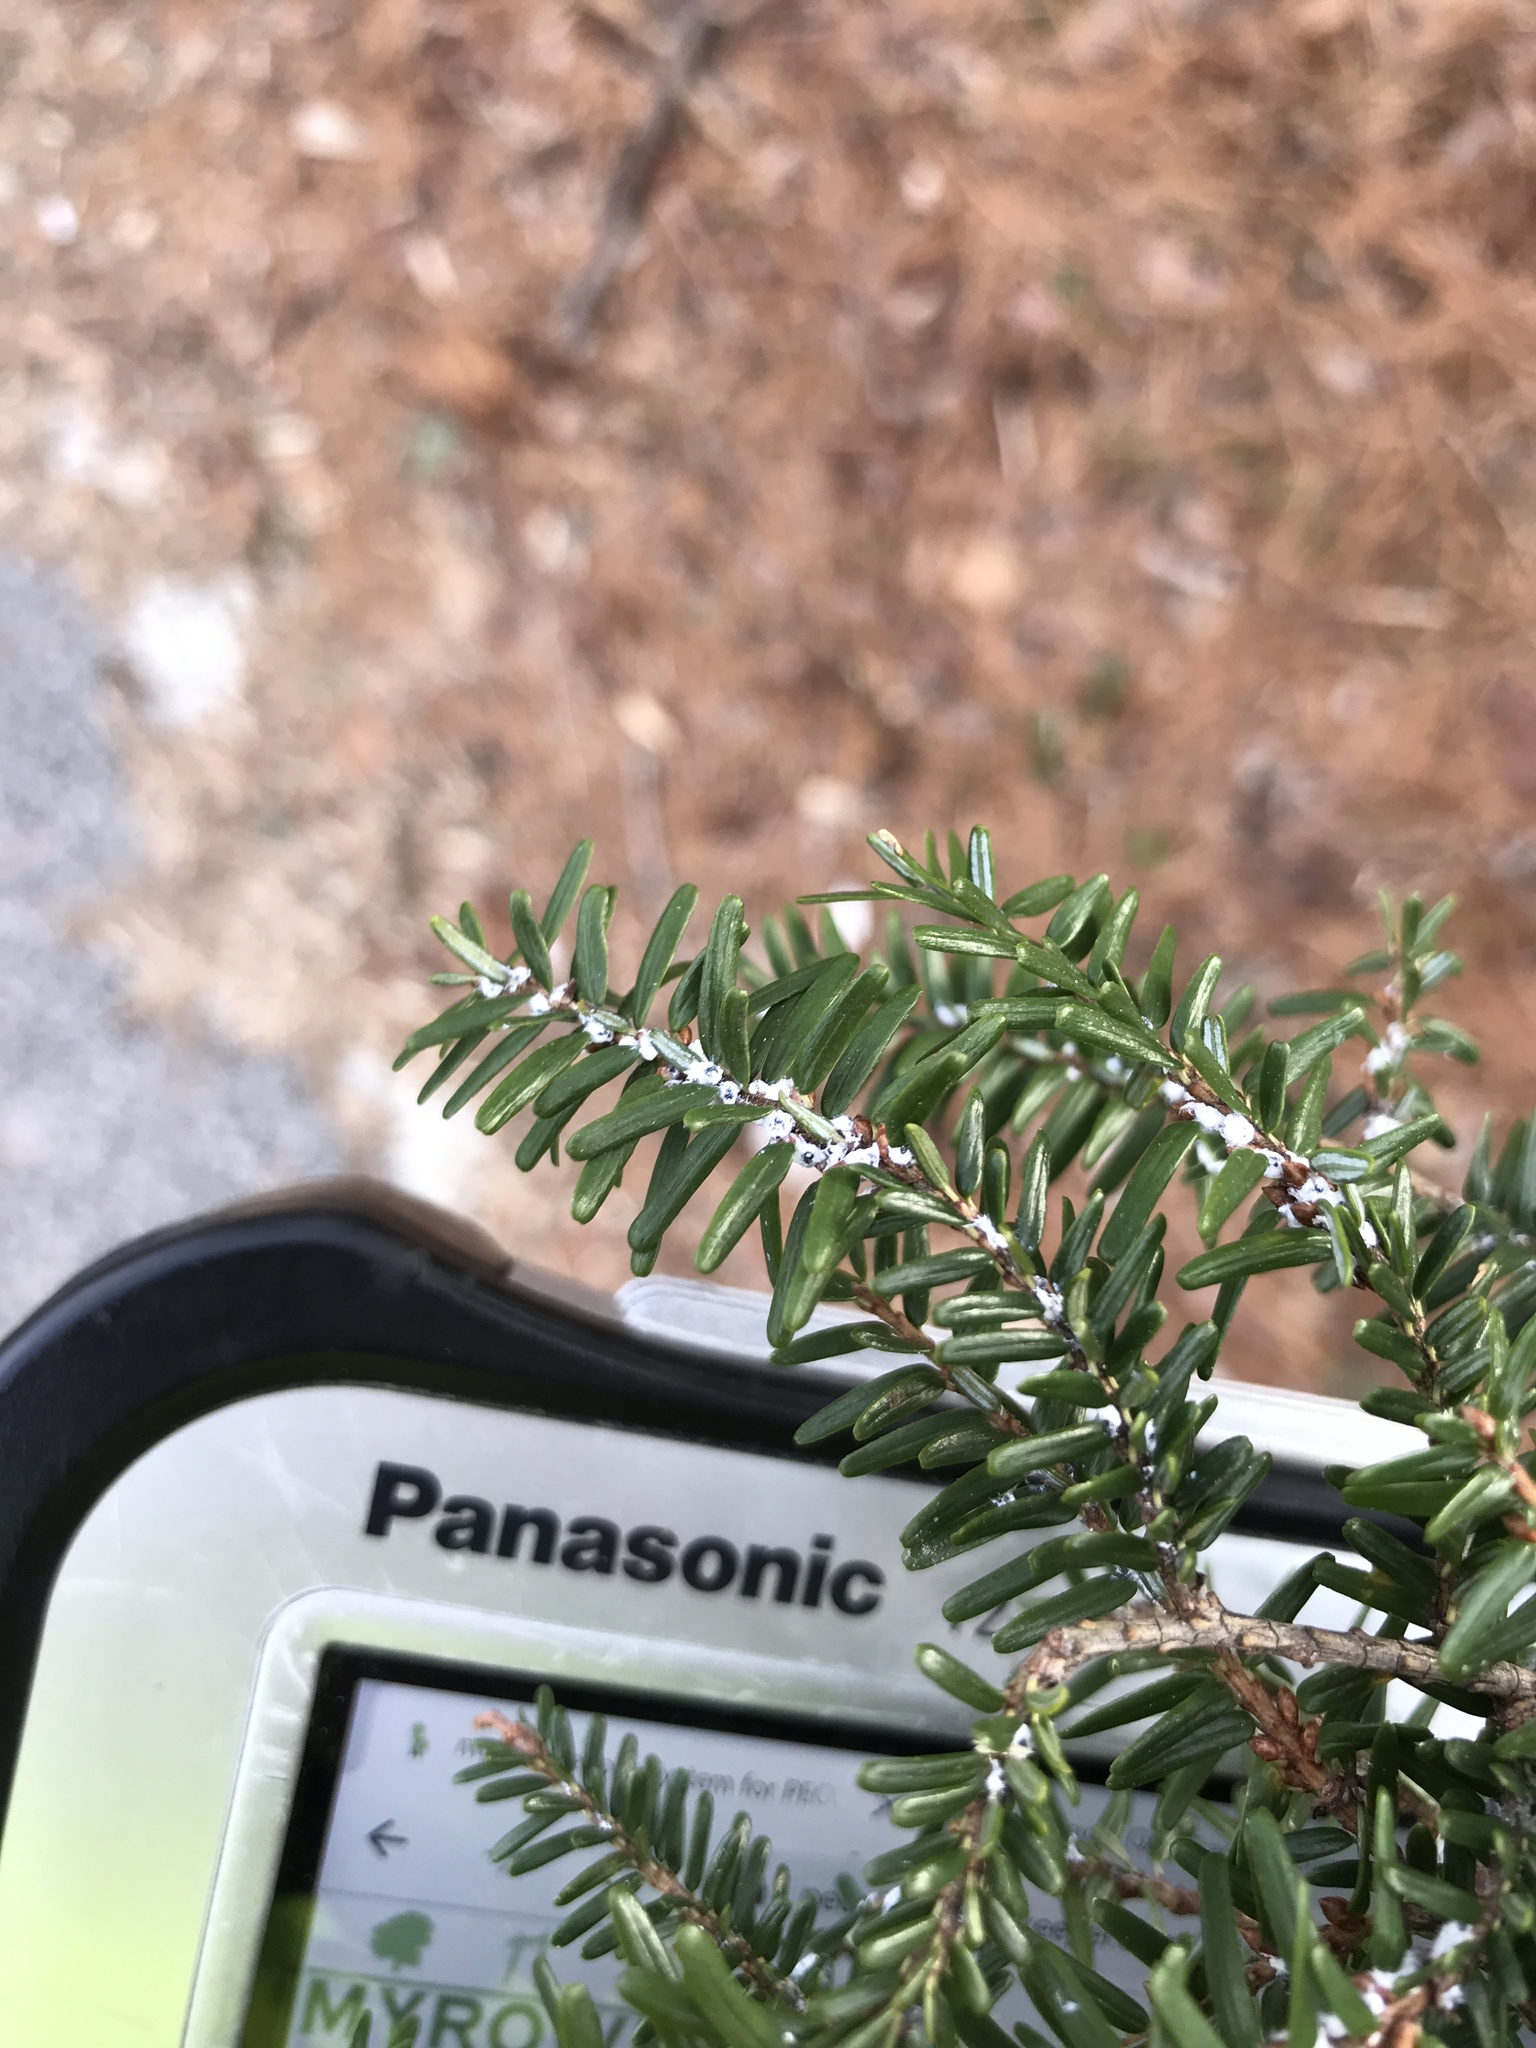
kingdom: Animalia
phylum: Arthropoda
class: Insecta
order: Hemiptera
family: Adelgidae
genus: Adelges
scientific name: Adelges tsugae
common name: Hemlock woolly adelgid
